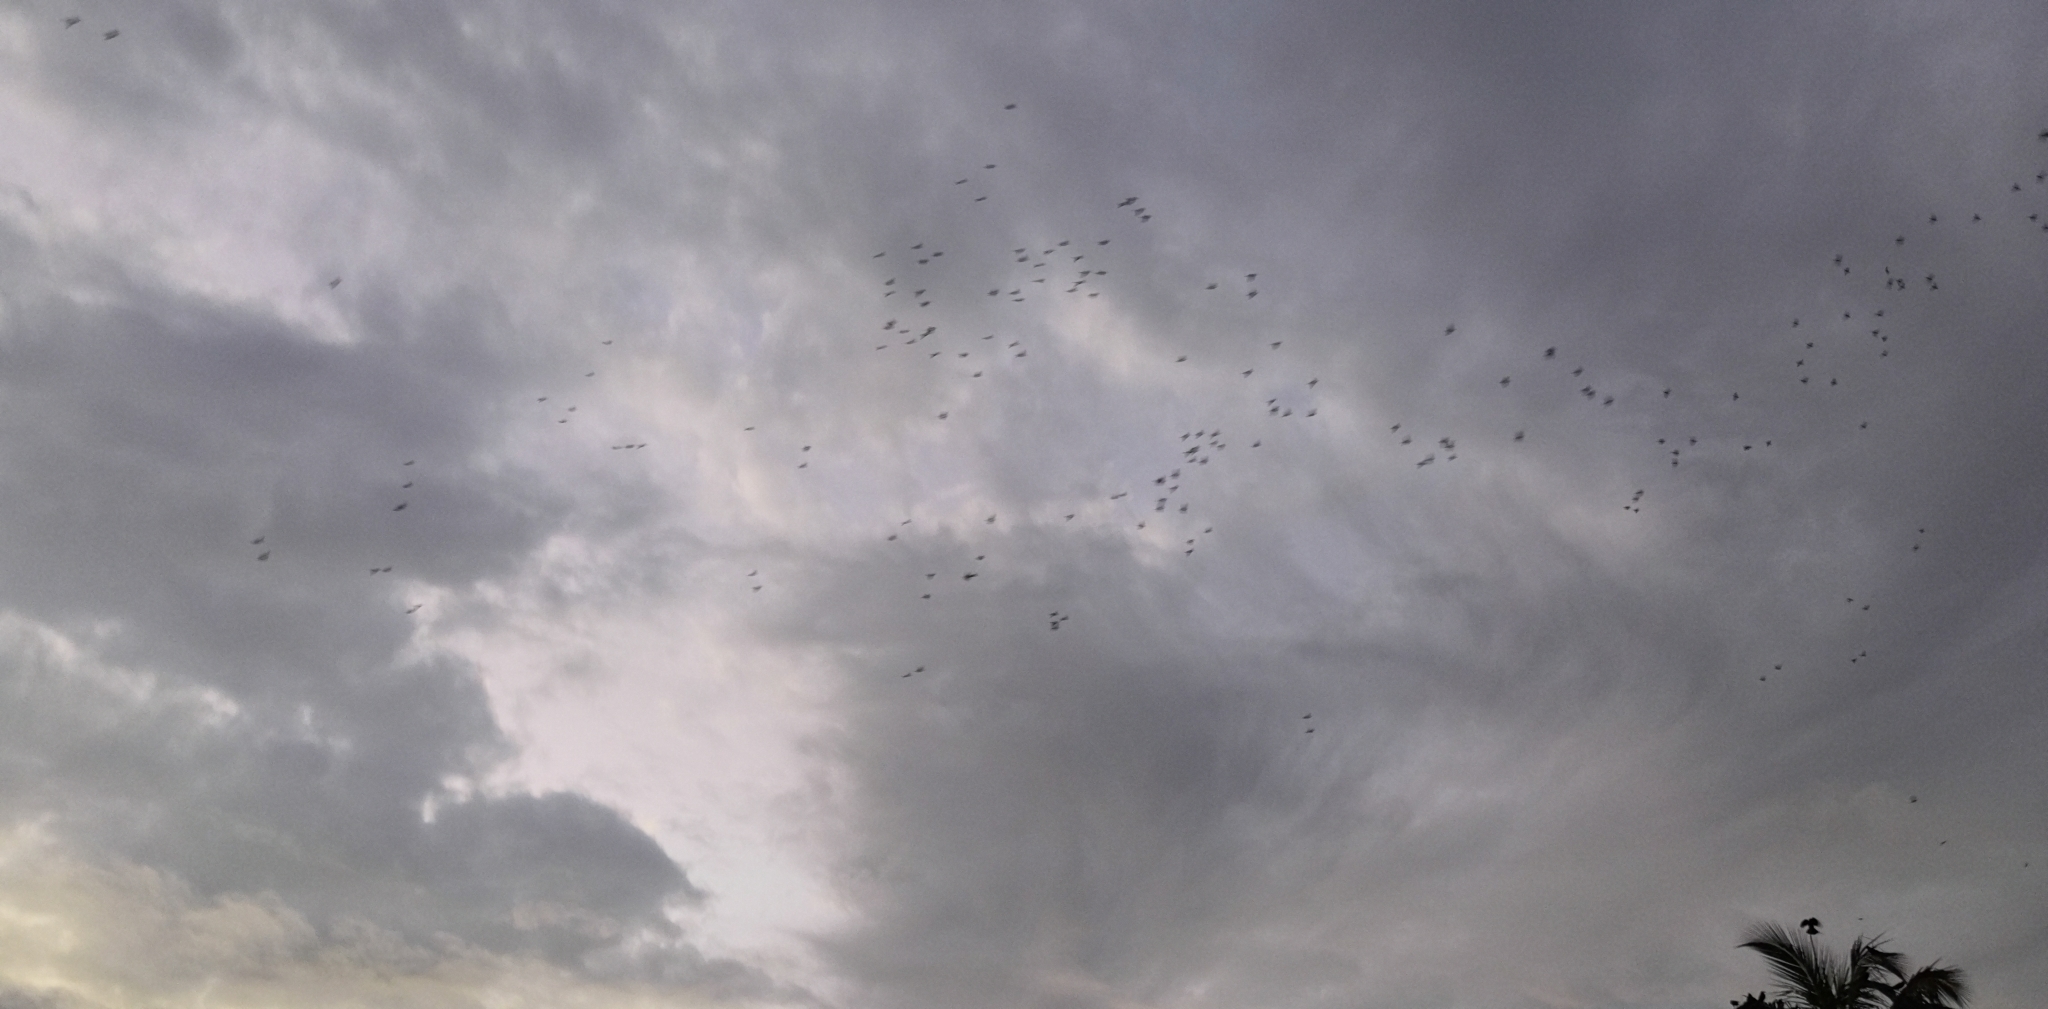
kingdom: Animalia
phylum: Chordata
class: Aves
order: Psittaciformes
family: Psittacidae
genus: Trichoglossus
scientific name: Trichoglossus haematodus
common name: Coconut lorikeet
